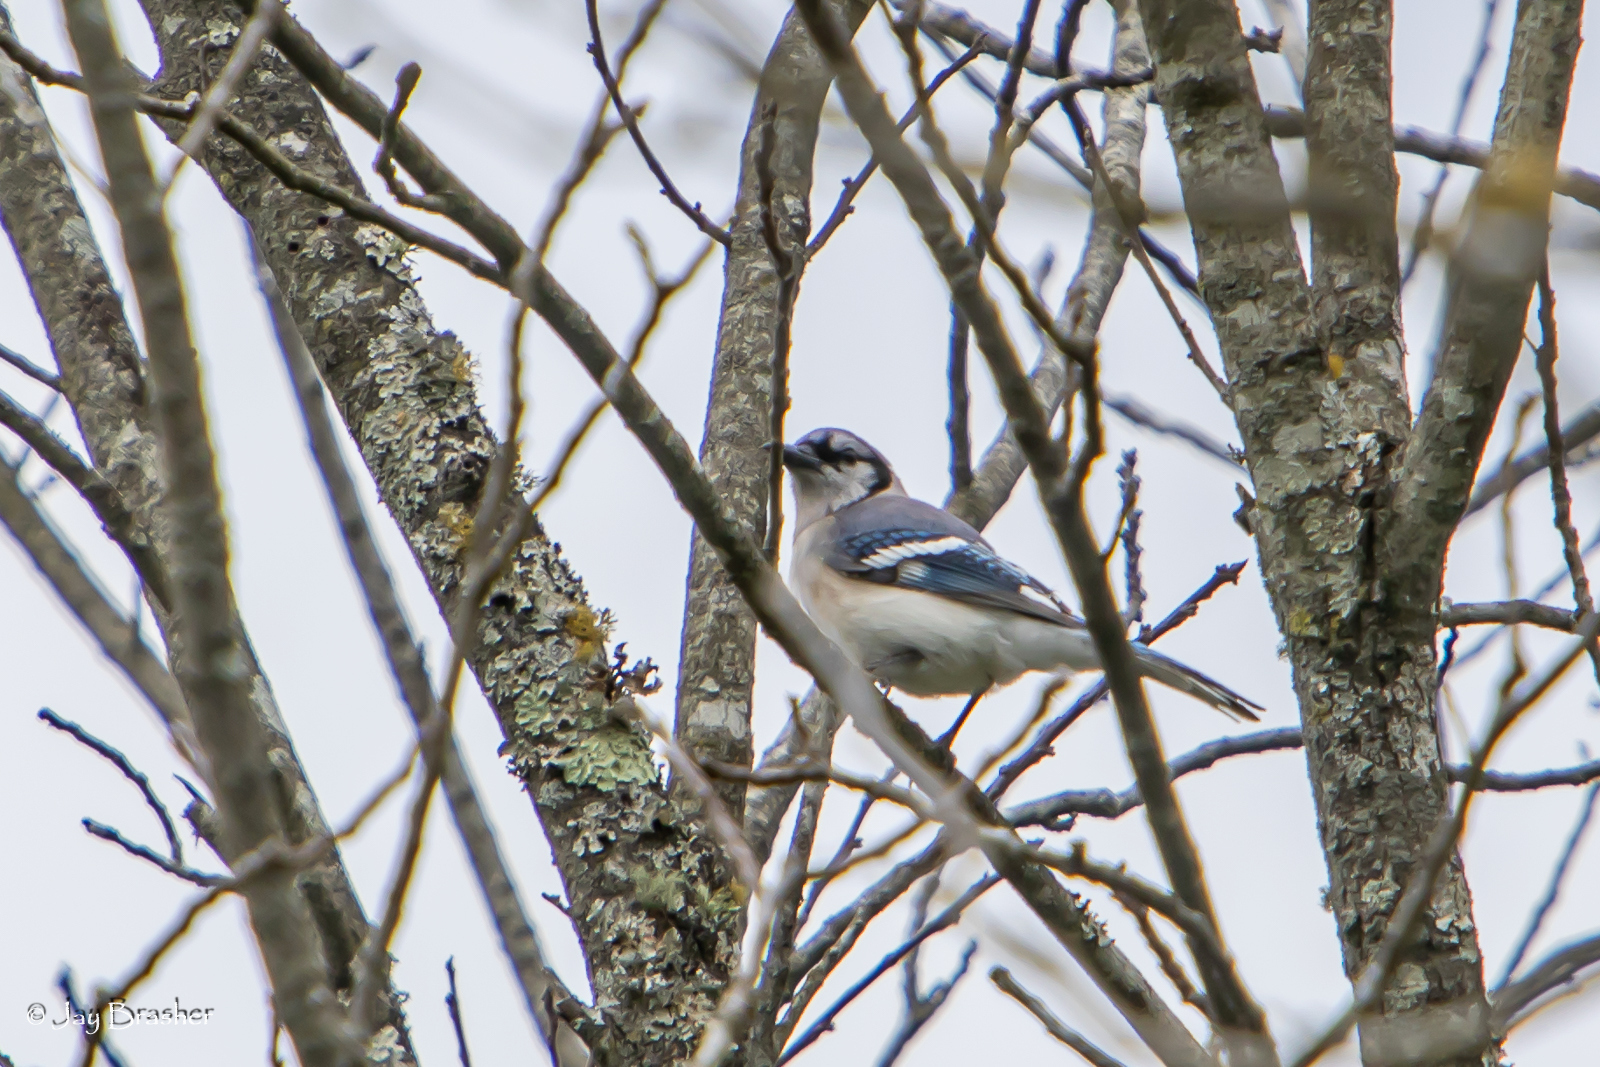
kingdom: Animalia
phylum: Chordata
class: Aves
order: Passeriformes
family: Corvidae
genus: Cyanocitta
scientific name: Cyanocitta cristata
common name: Blue jay
